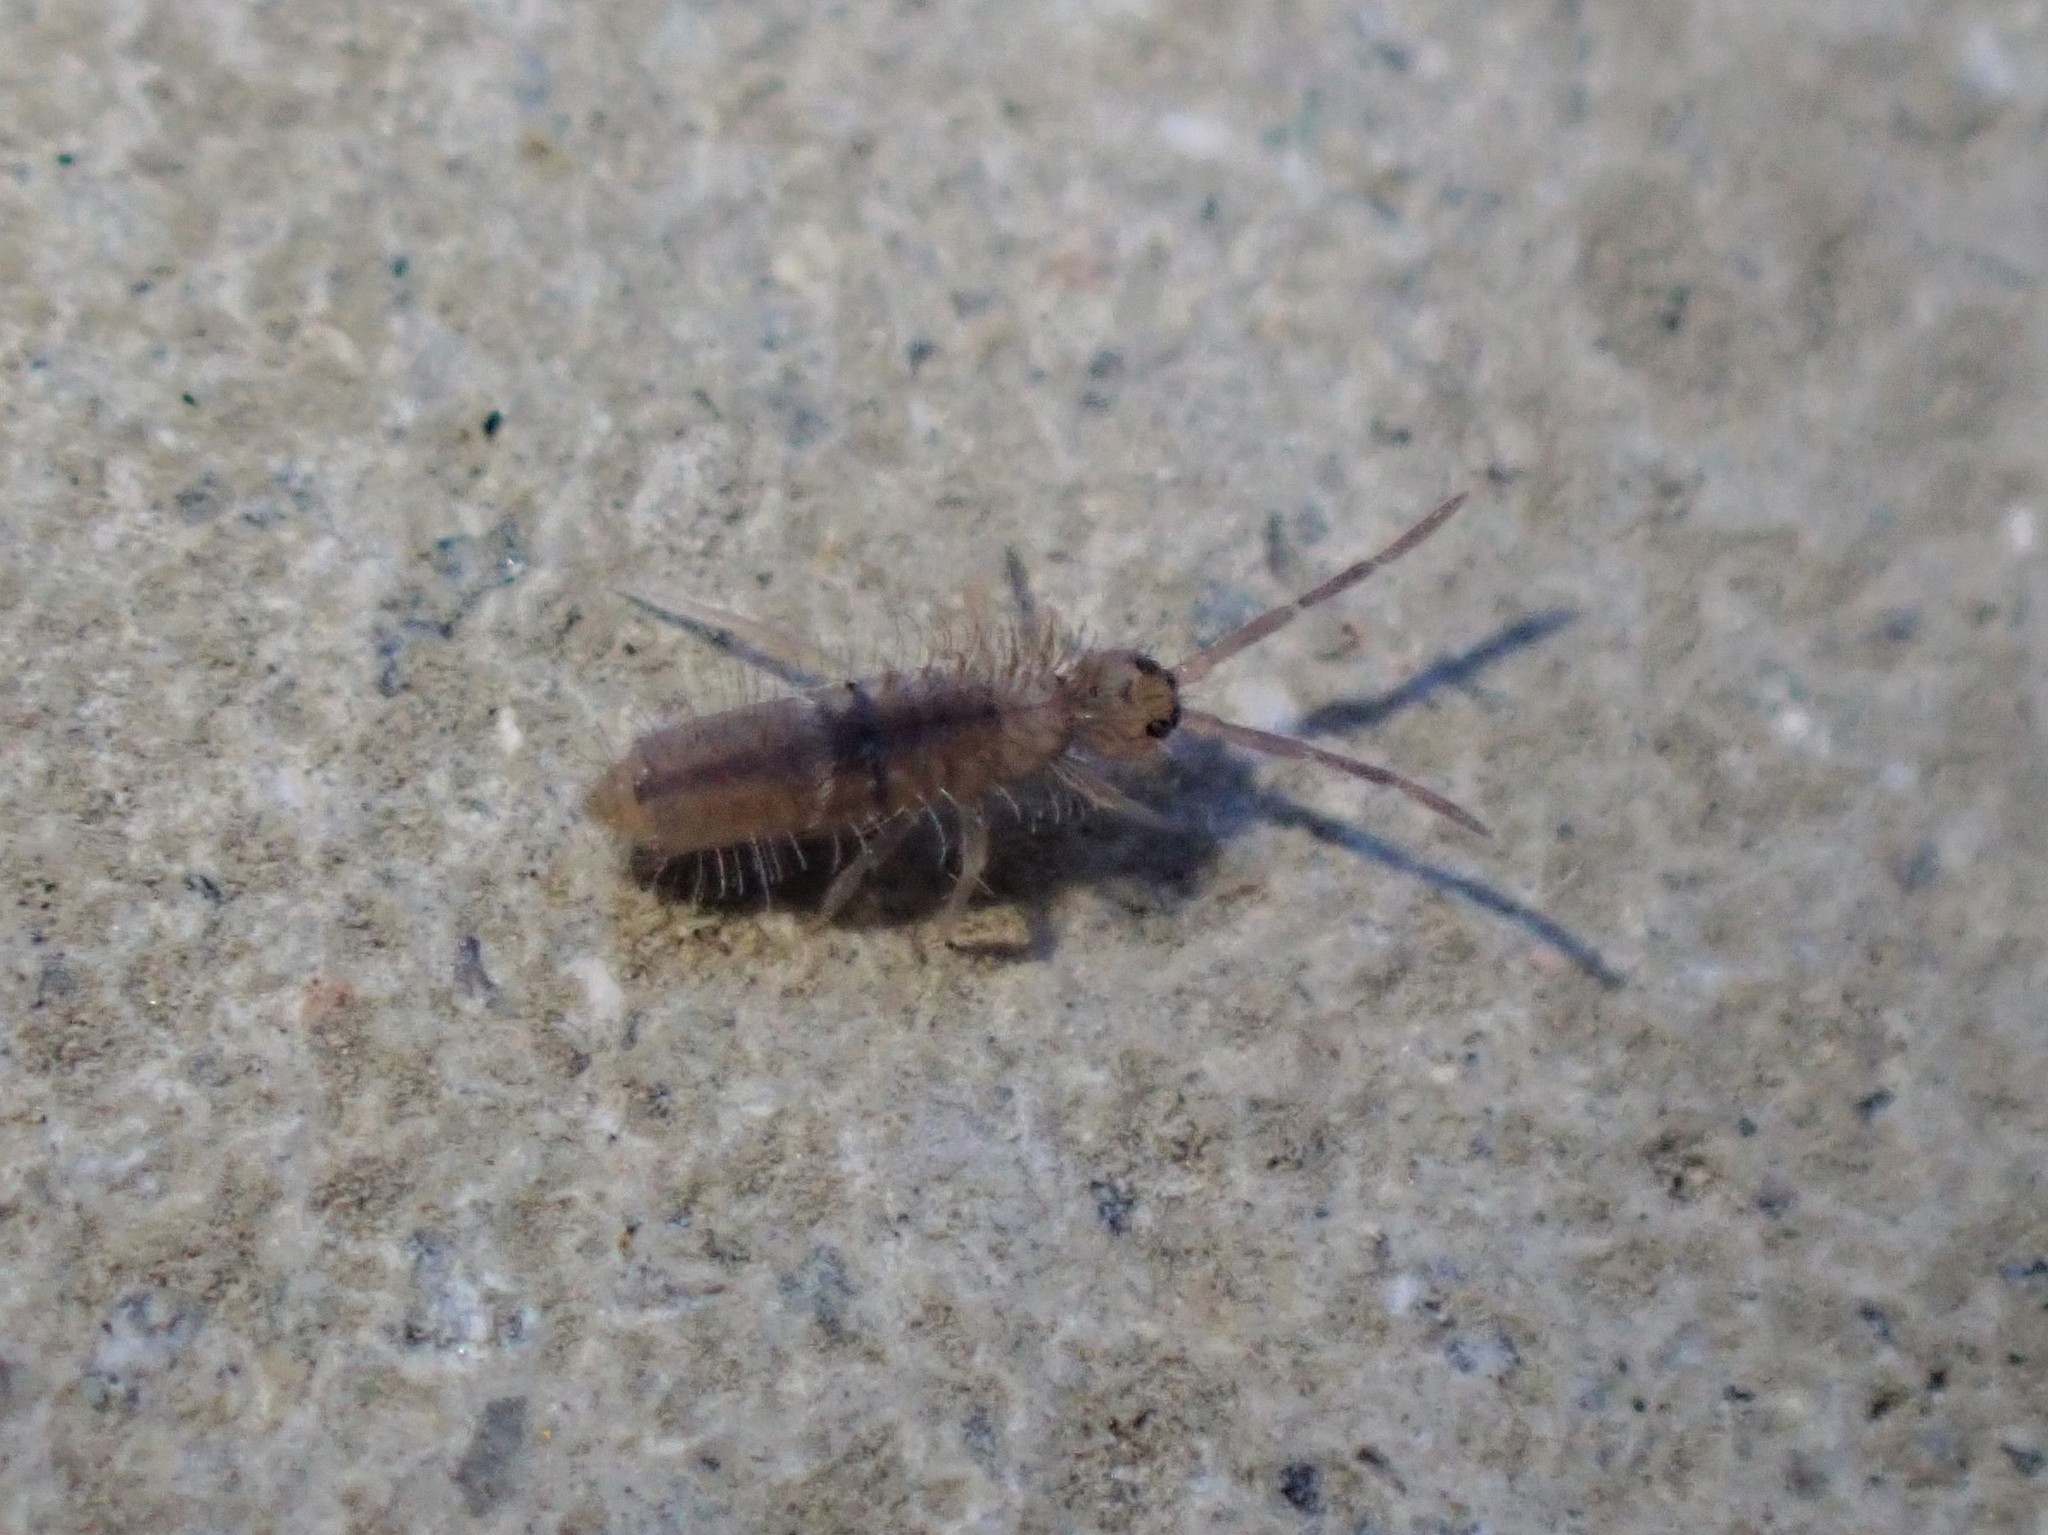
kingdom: Animalia
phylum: Arthropoda
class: Collembola
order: Entomobryomorpha
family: Entomobryidae
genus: Entomobrya
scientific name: Entomobrya unostrigata
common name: Springtail
